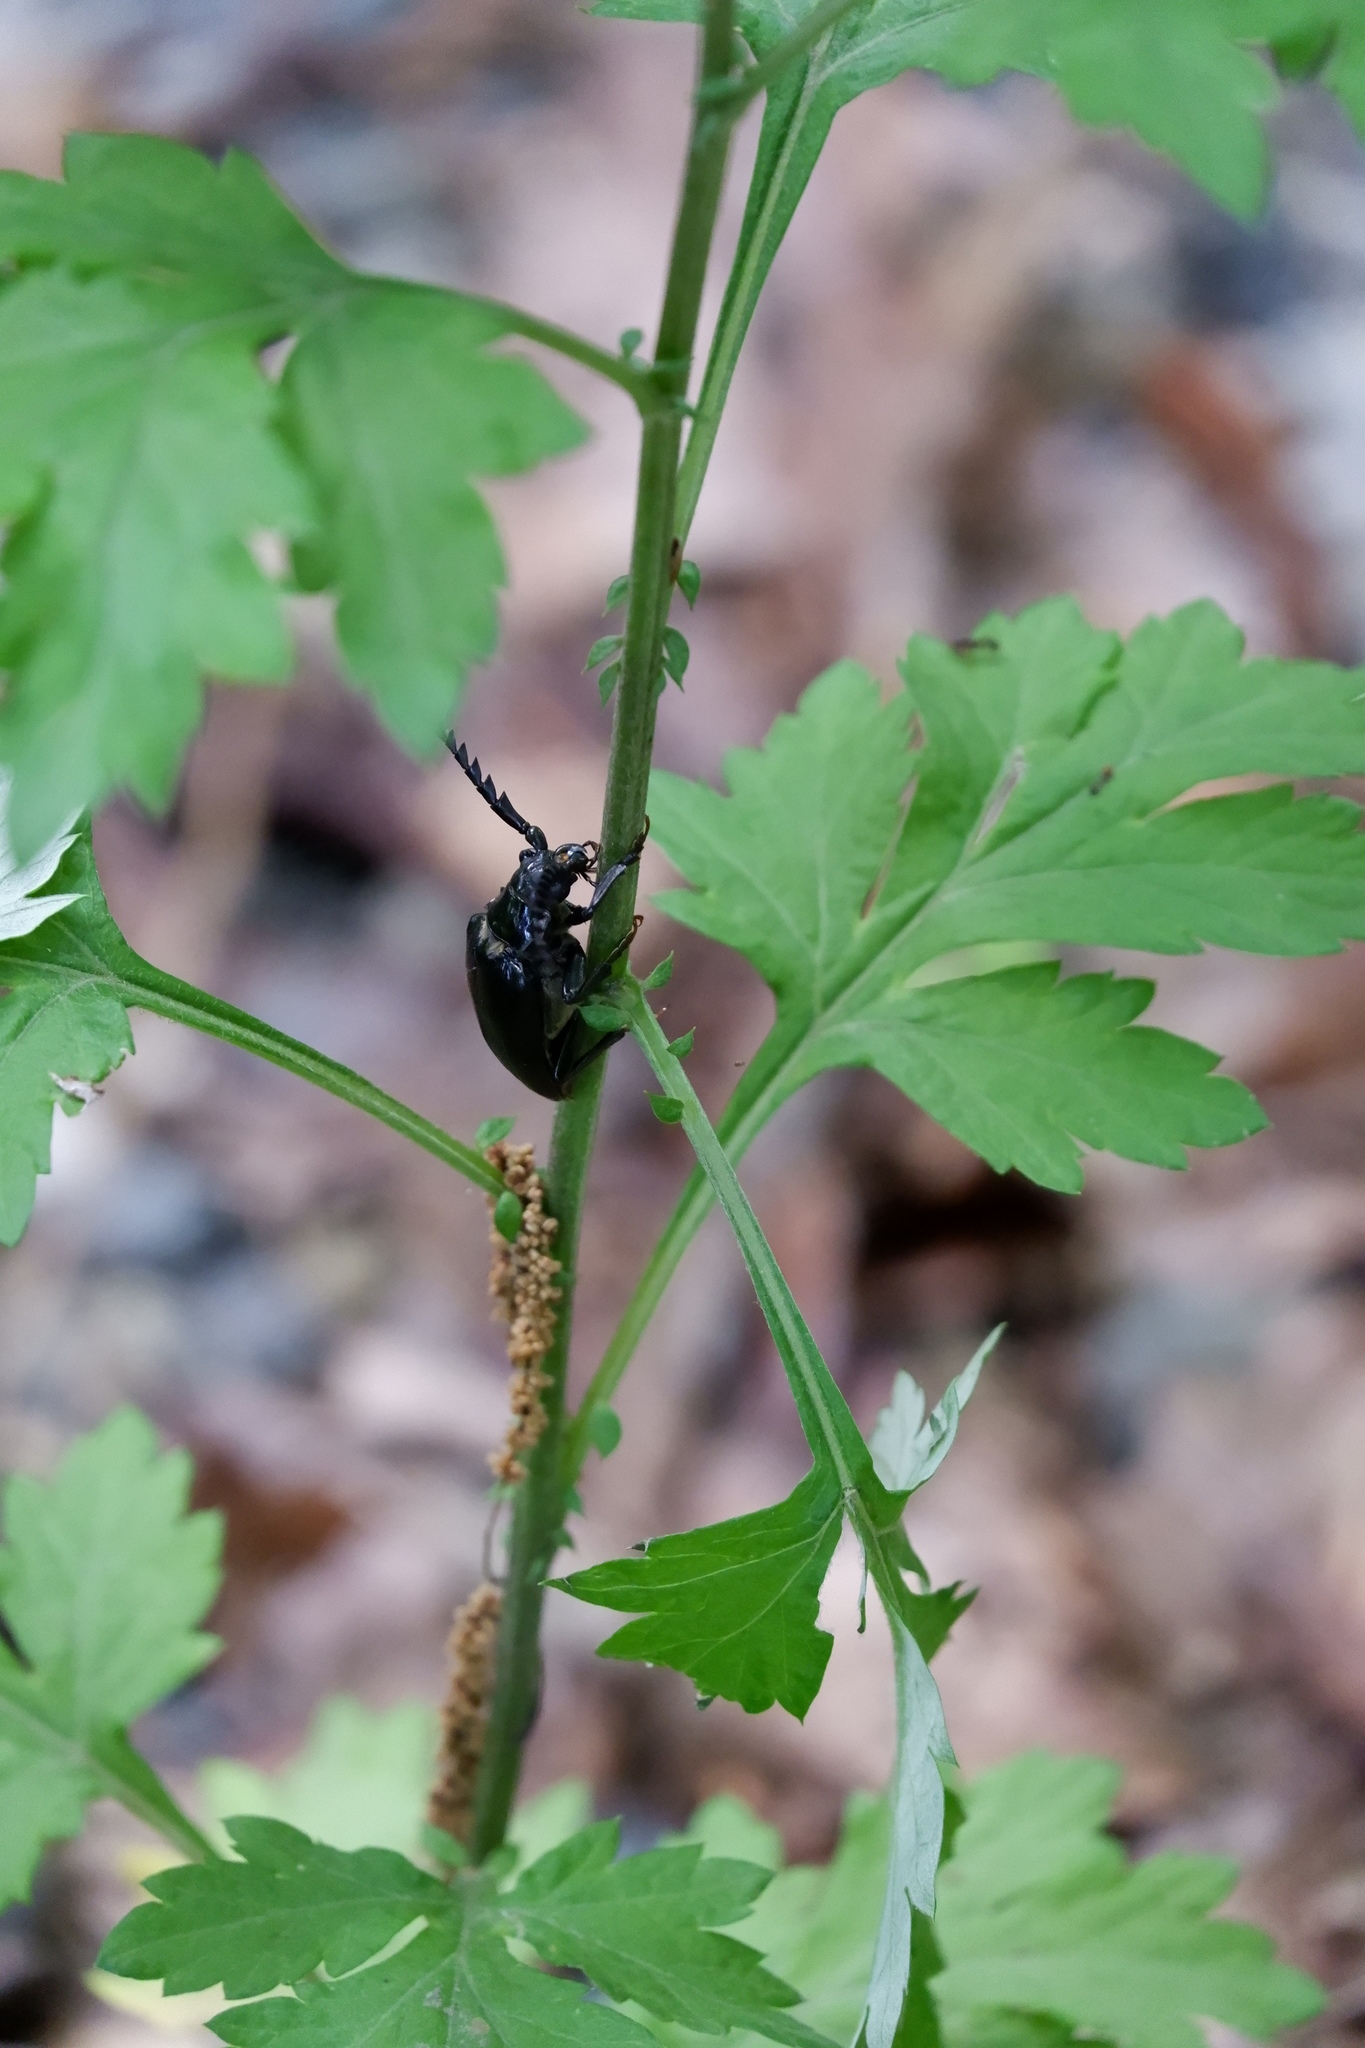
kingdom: Animalia
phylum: Arthropoda
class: Insecta
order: Coleoptera
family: Cerambycidae
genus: Prionus
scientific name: Prionus laticollis
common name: Broad necked prionus
